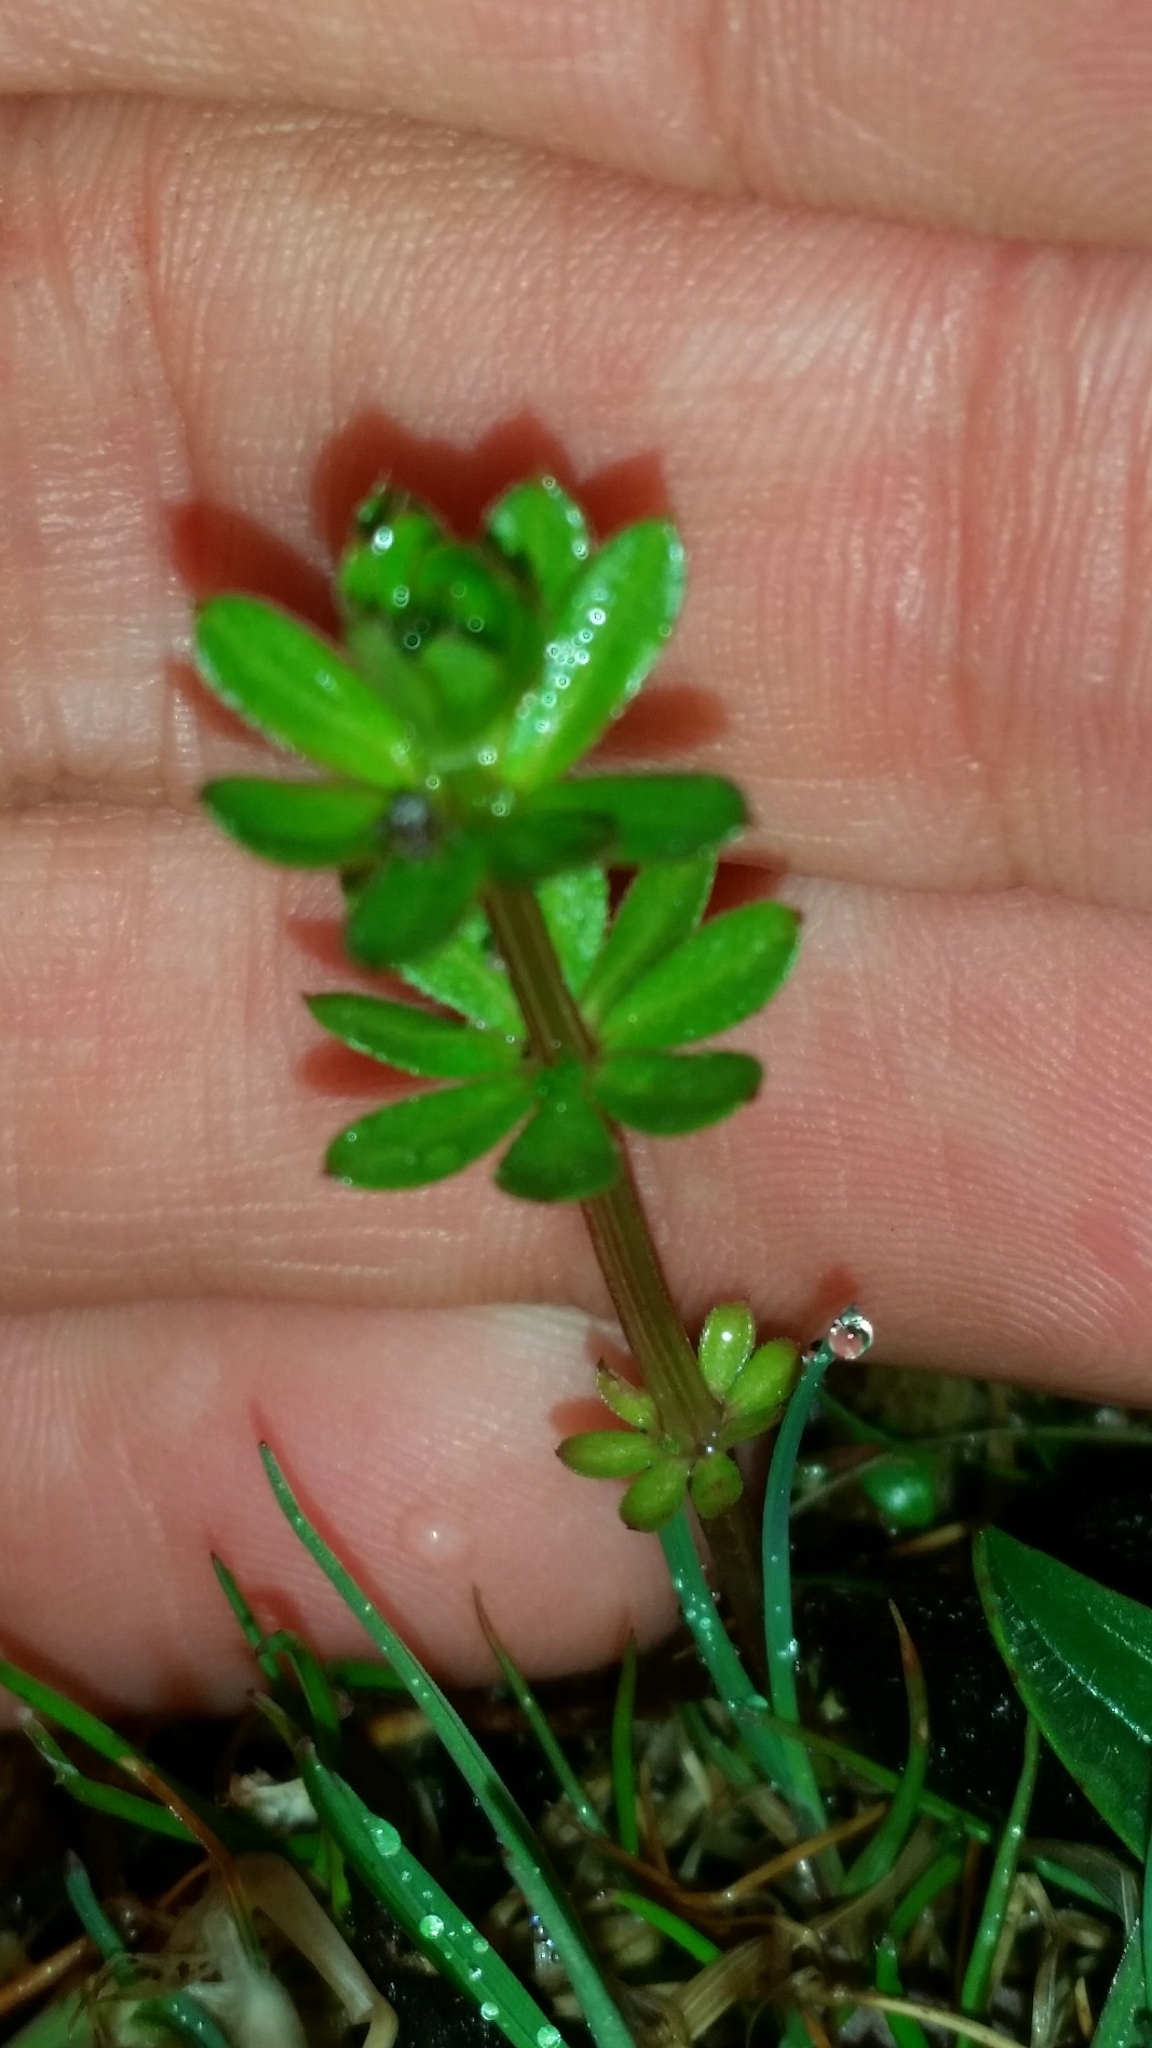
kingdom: Plantae
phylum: Tracheophyta
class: Magnoliopsida
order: Gentianales
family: Rubiaceae
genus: Galium
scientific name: Galium mollugo
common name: Hedge bedstraw
